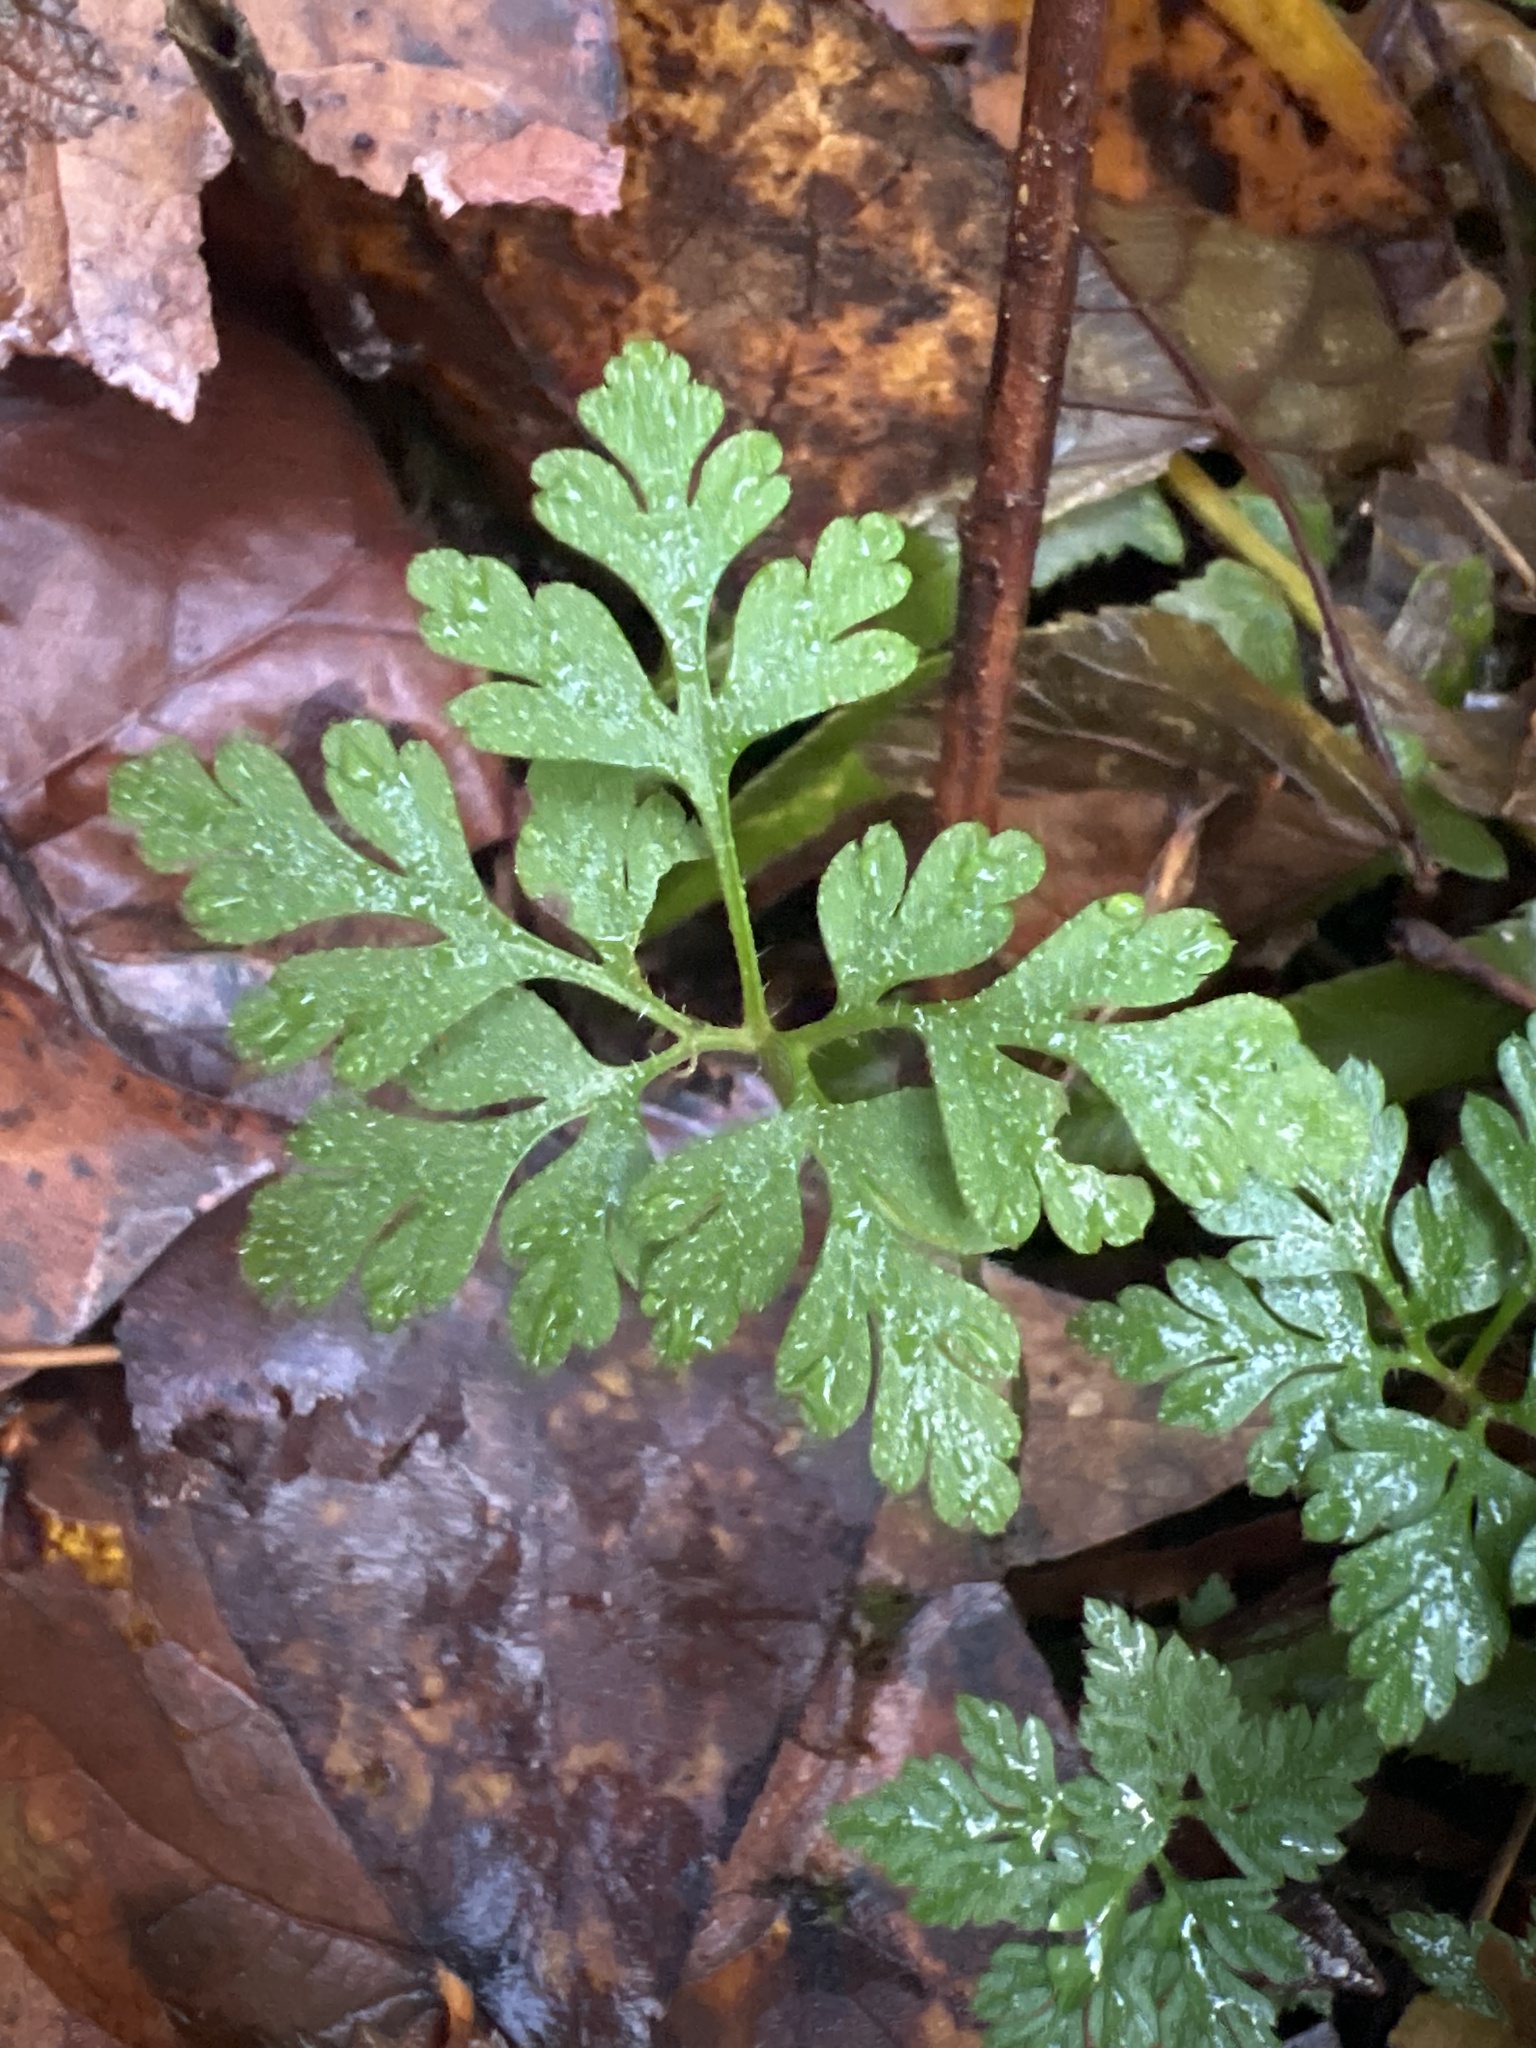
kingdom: Plantae
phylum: Tracheophyta
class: Magnoliopsida
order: Geraniales
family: Geraniaceae
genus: Geranium
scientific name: Geranium robertianum
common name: Herb-robert
